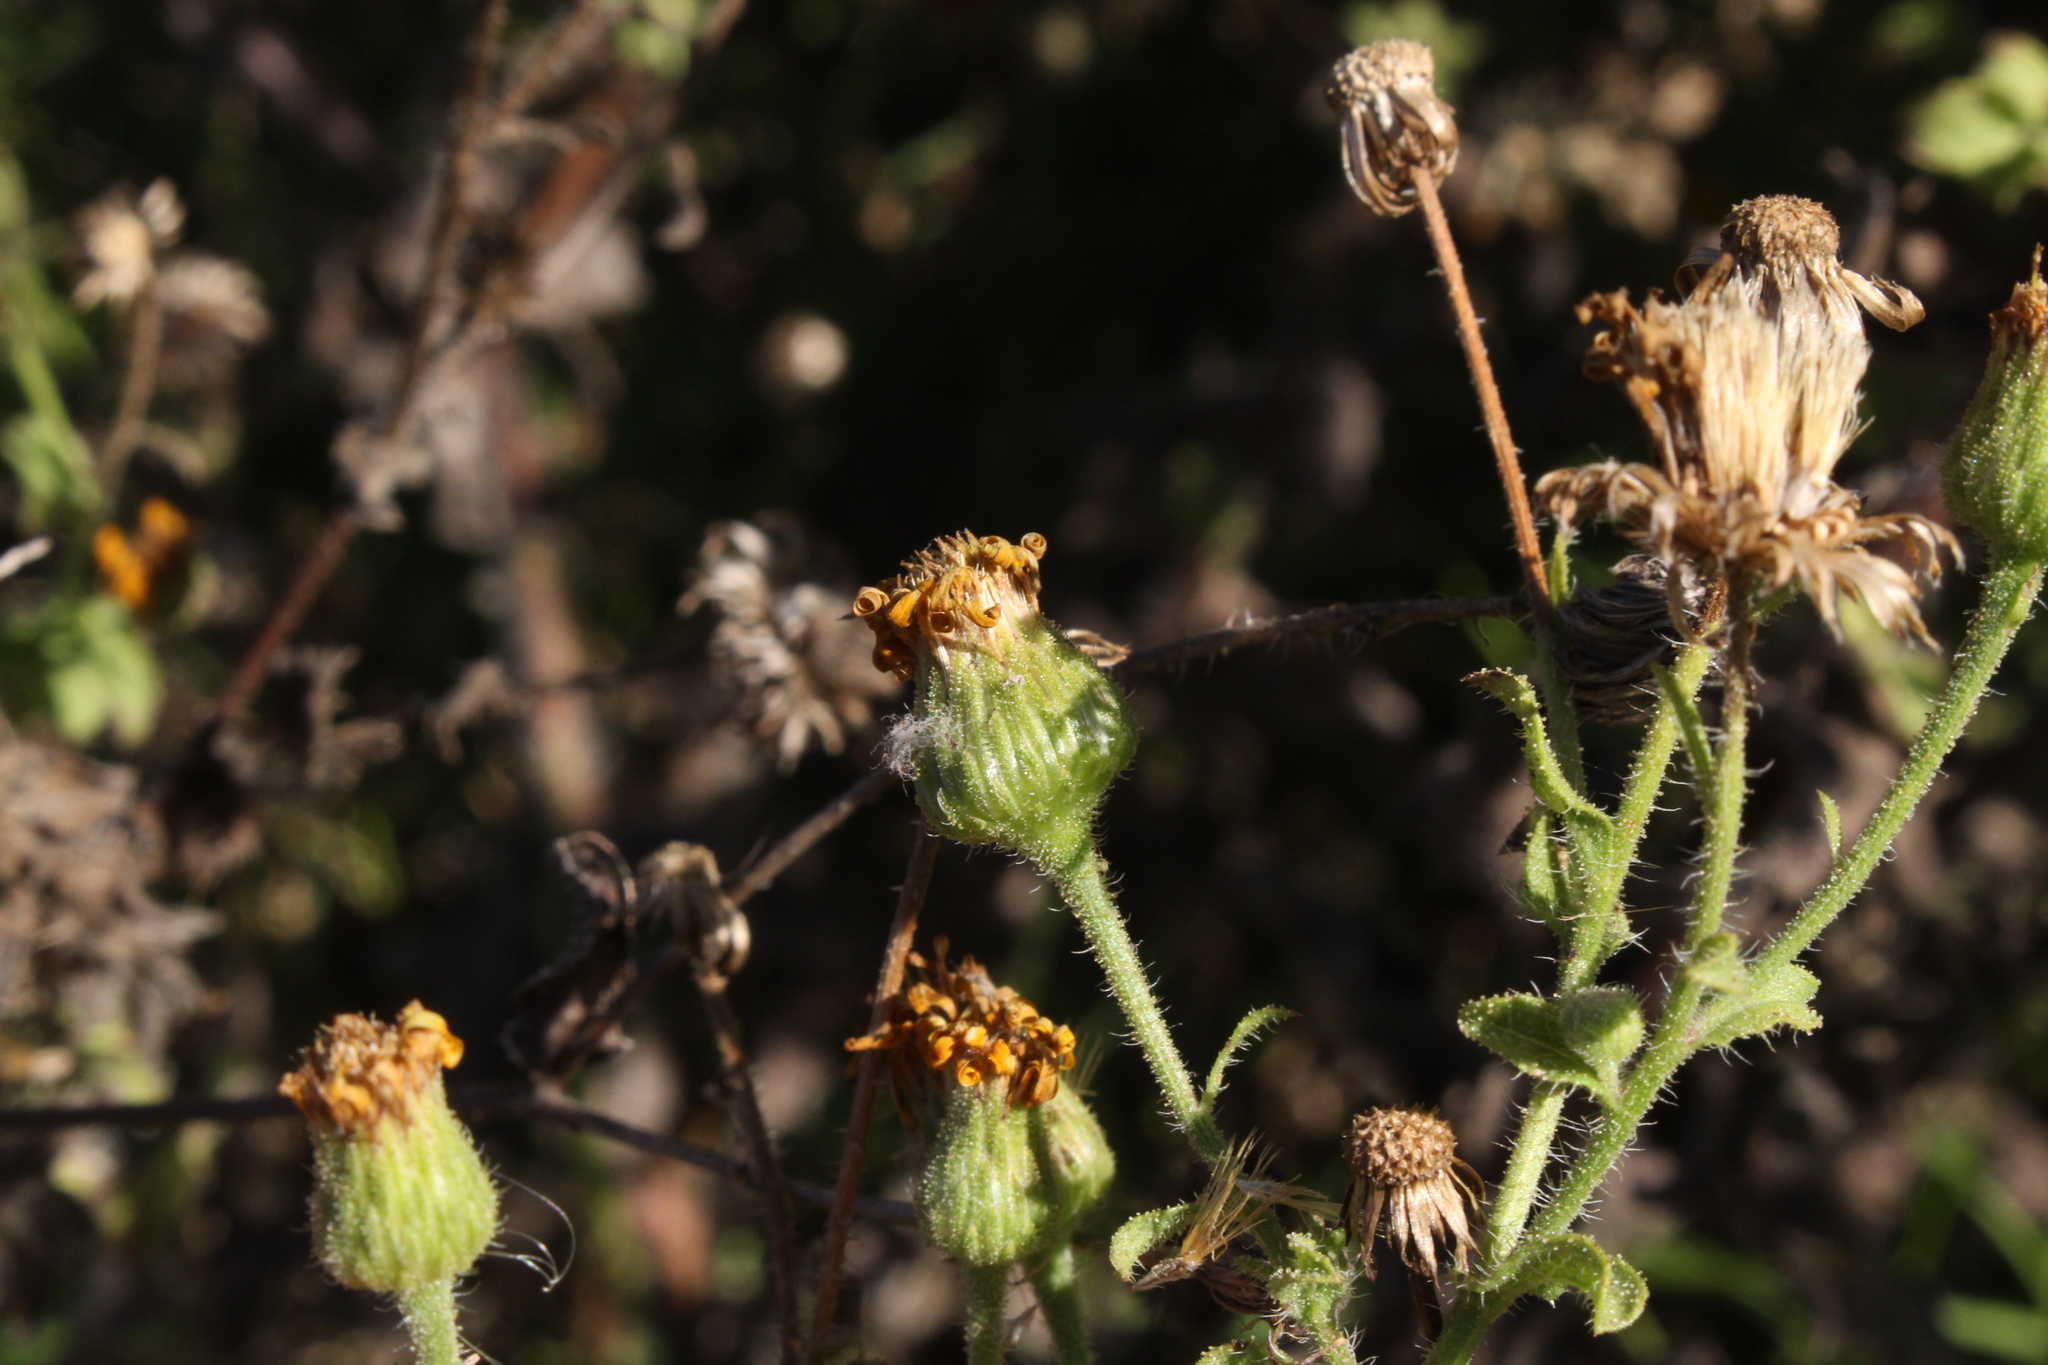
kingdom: Plantae
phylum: Tracheophyta
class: Magnoliopsida
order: Asterales
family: Asteraceae
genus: Heterotheca
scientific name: Heterotheca subaxillaris
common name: Camphorweed
